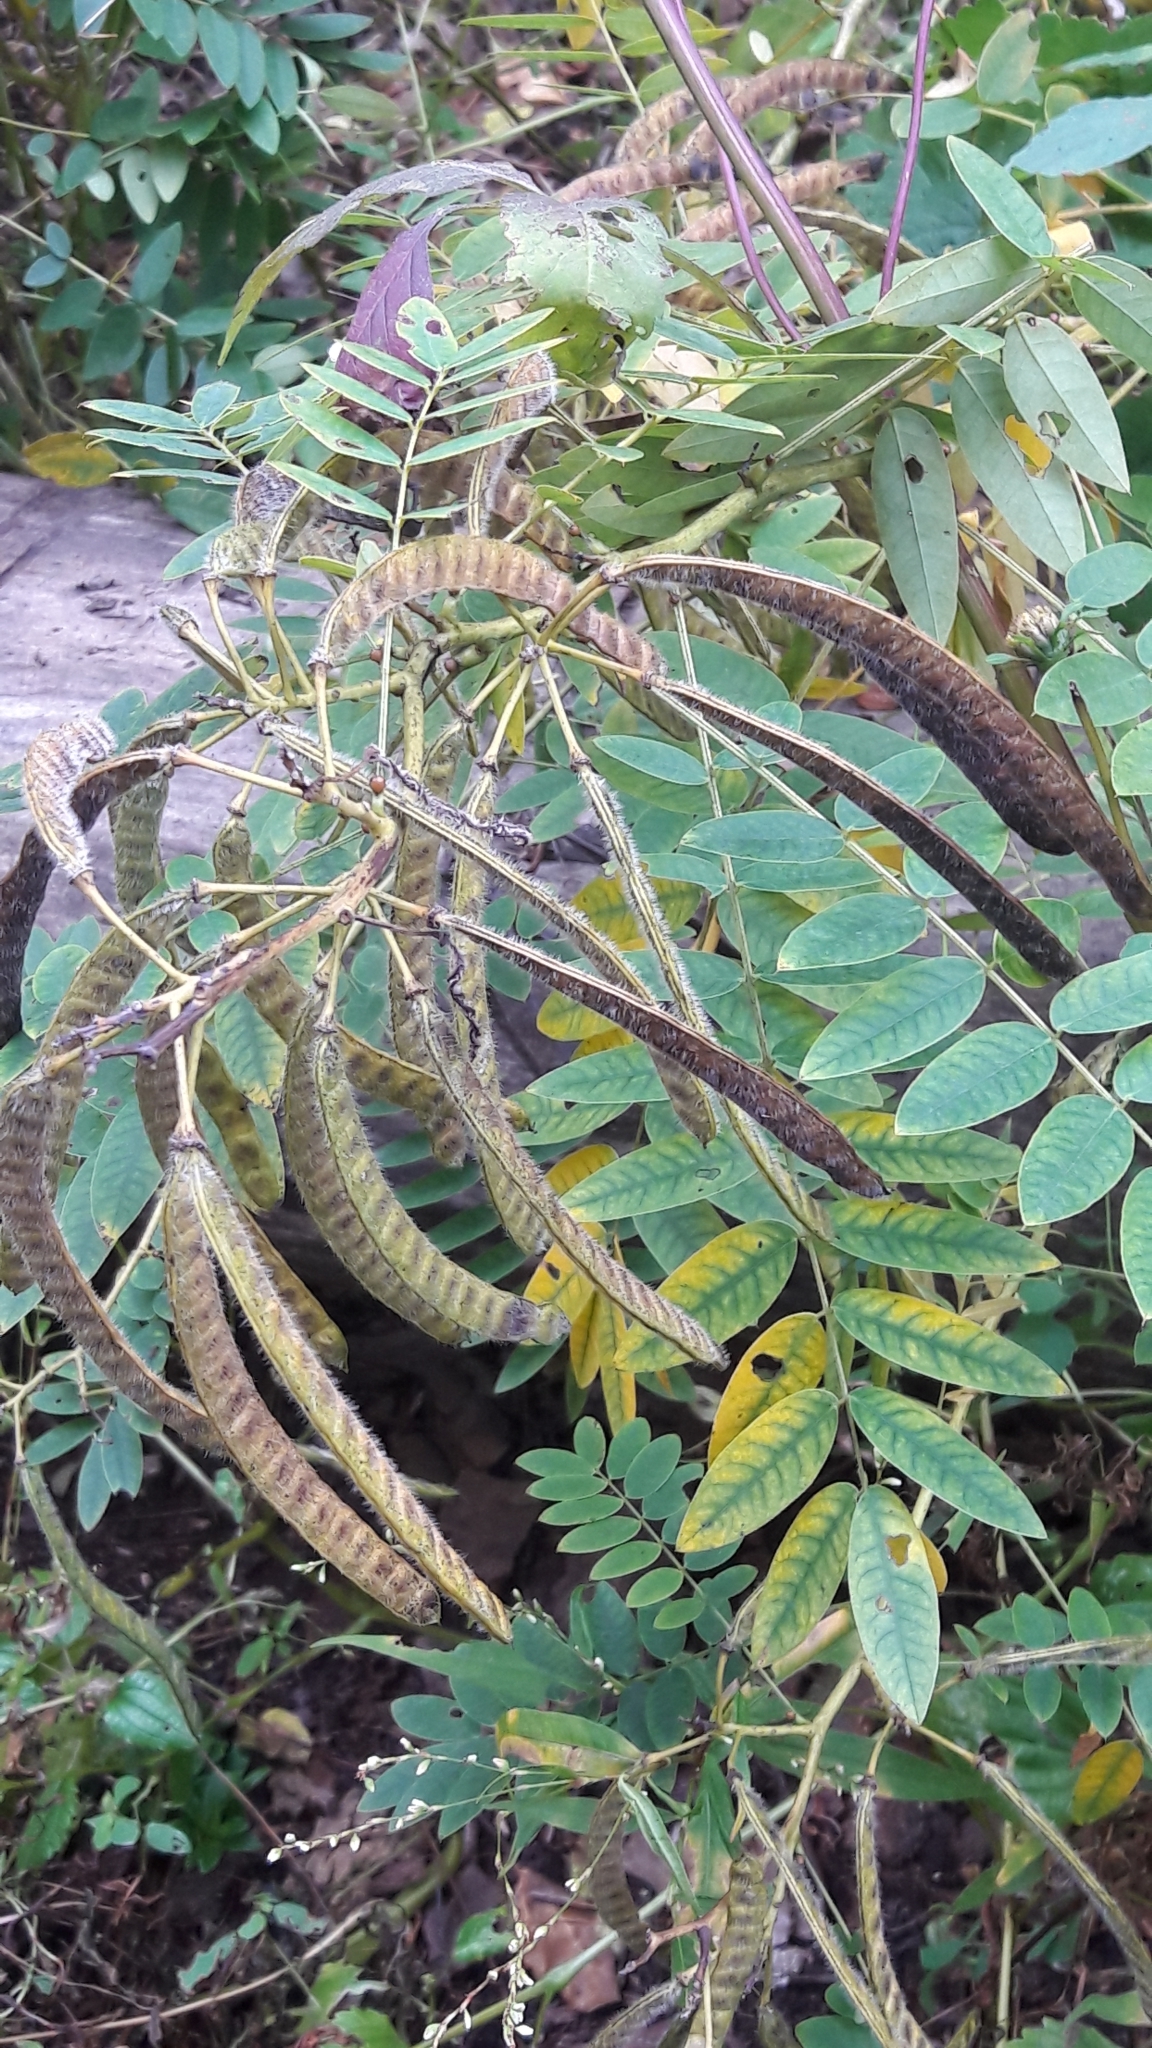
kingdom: Plantae
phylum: Tracheophyta
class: Magnoliopsida
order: Fabales
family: Fabaceae
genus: Senna
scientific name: Senna hebecarpa
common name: Wild senna
